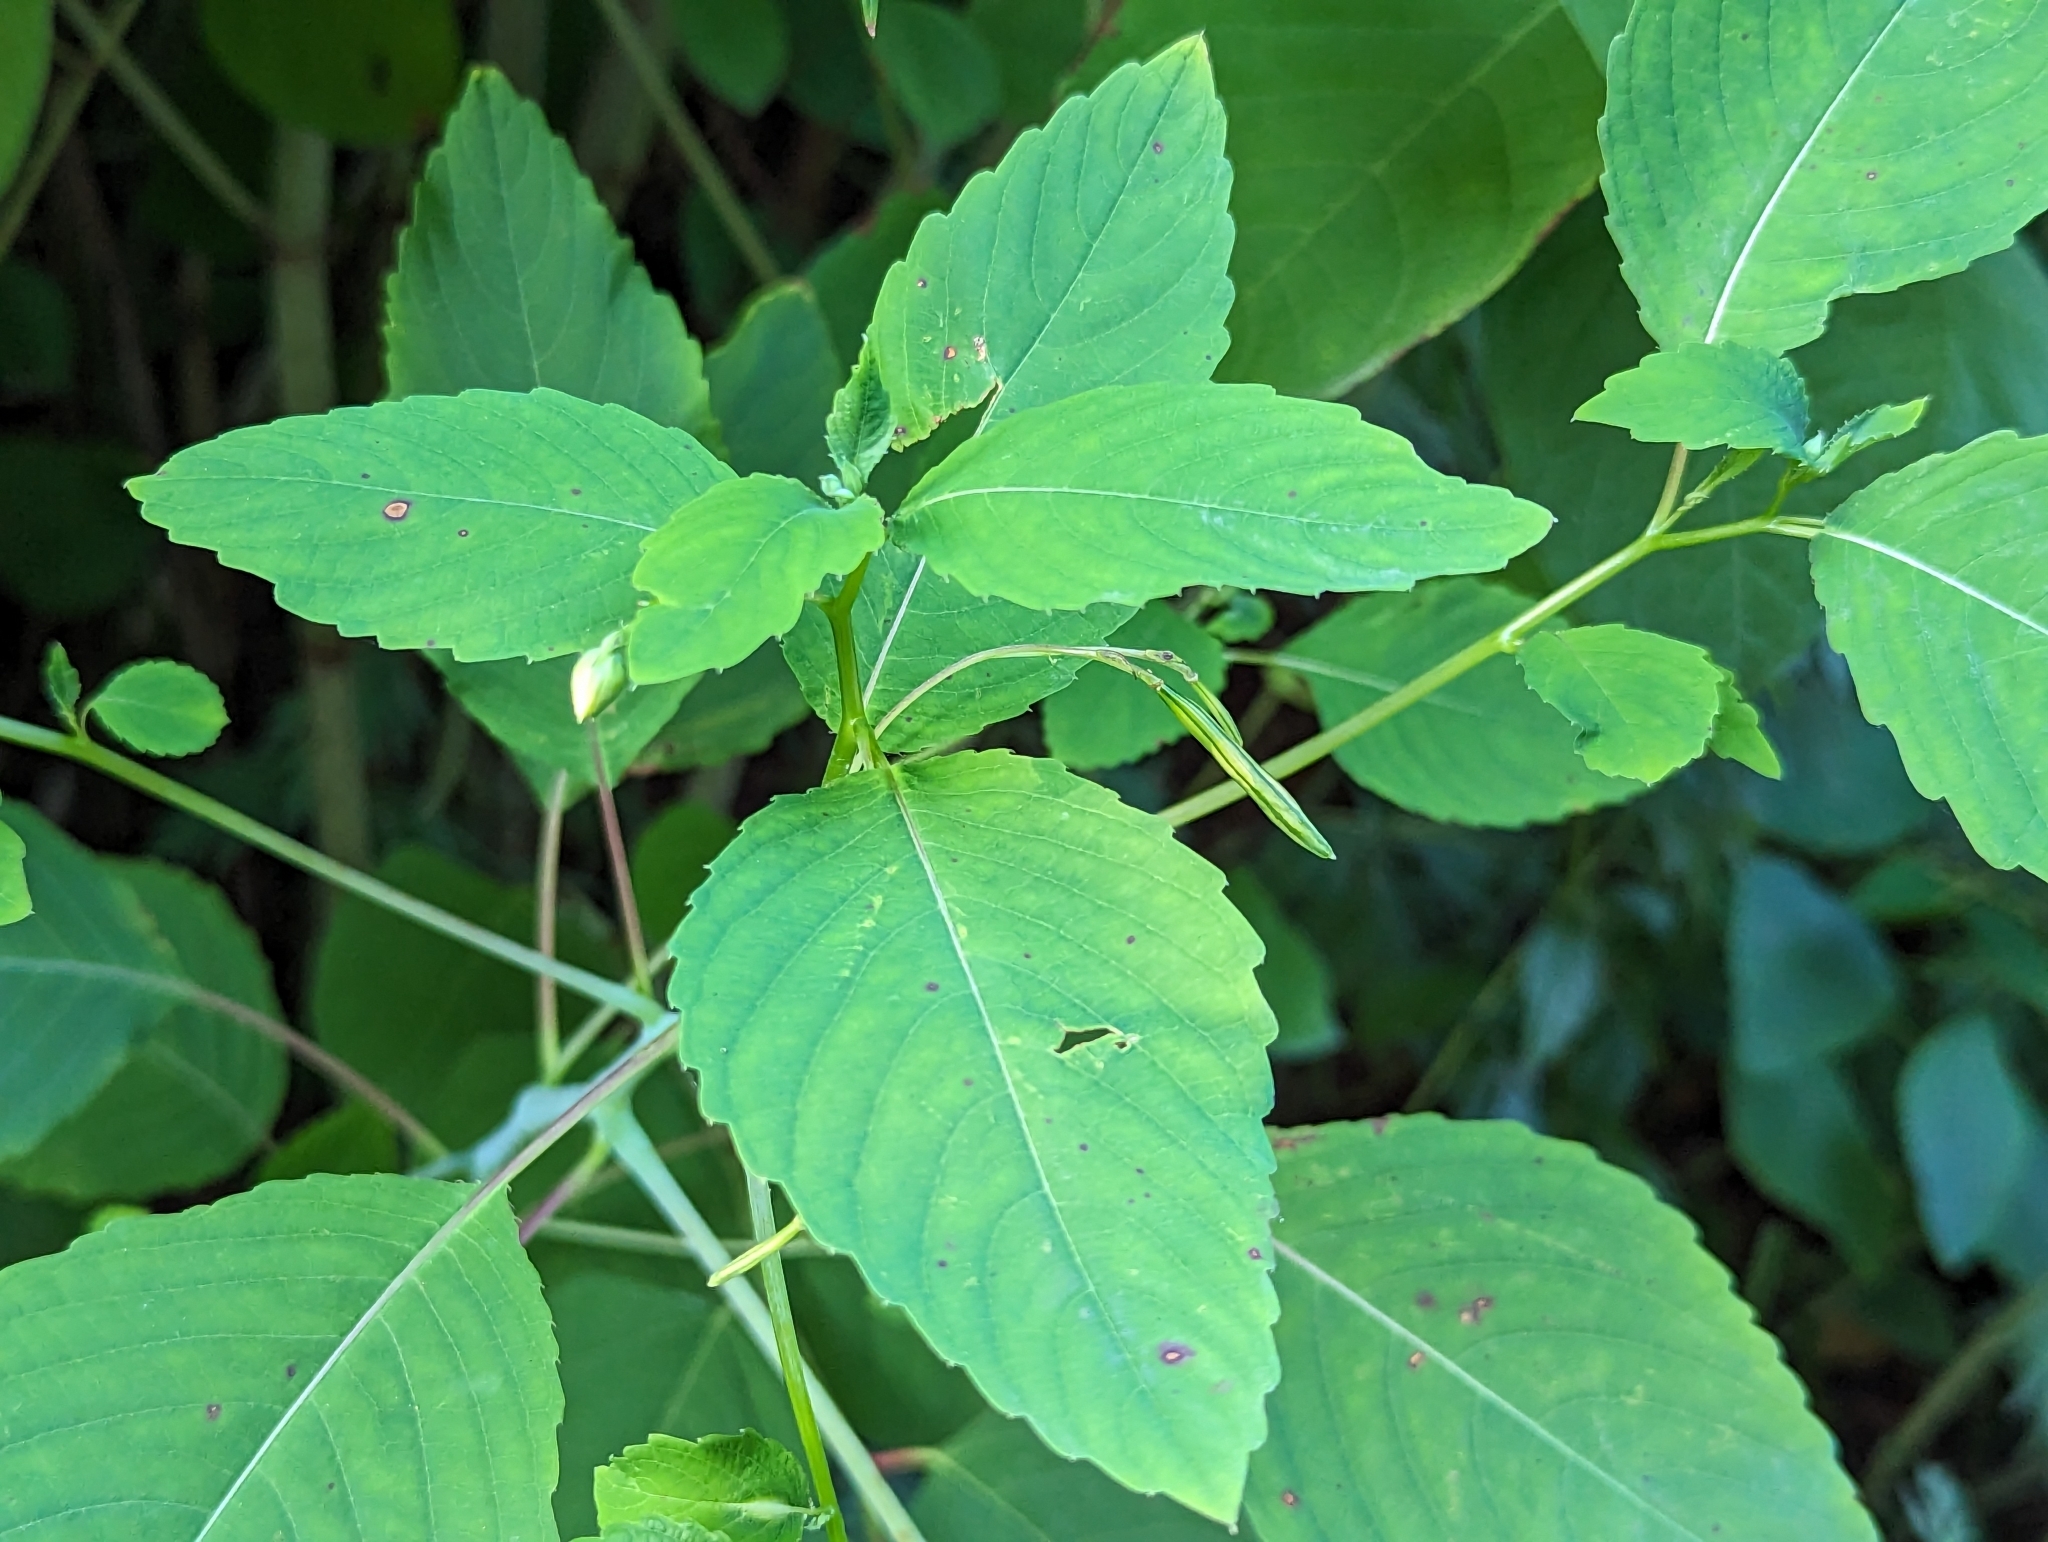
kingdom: Plantae
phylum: Tracheophyta
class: Magnoliopsida
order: Ericales
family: Balsaminaceae
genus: Impatiens
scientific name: Impatiens pallida
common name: Pale snapweed
